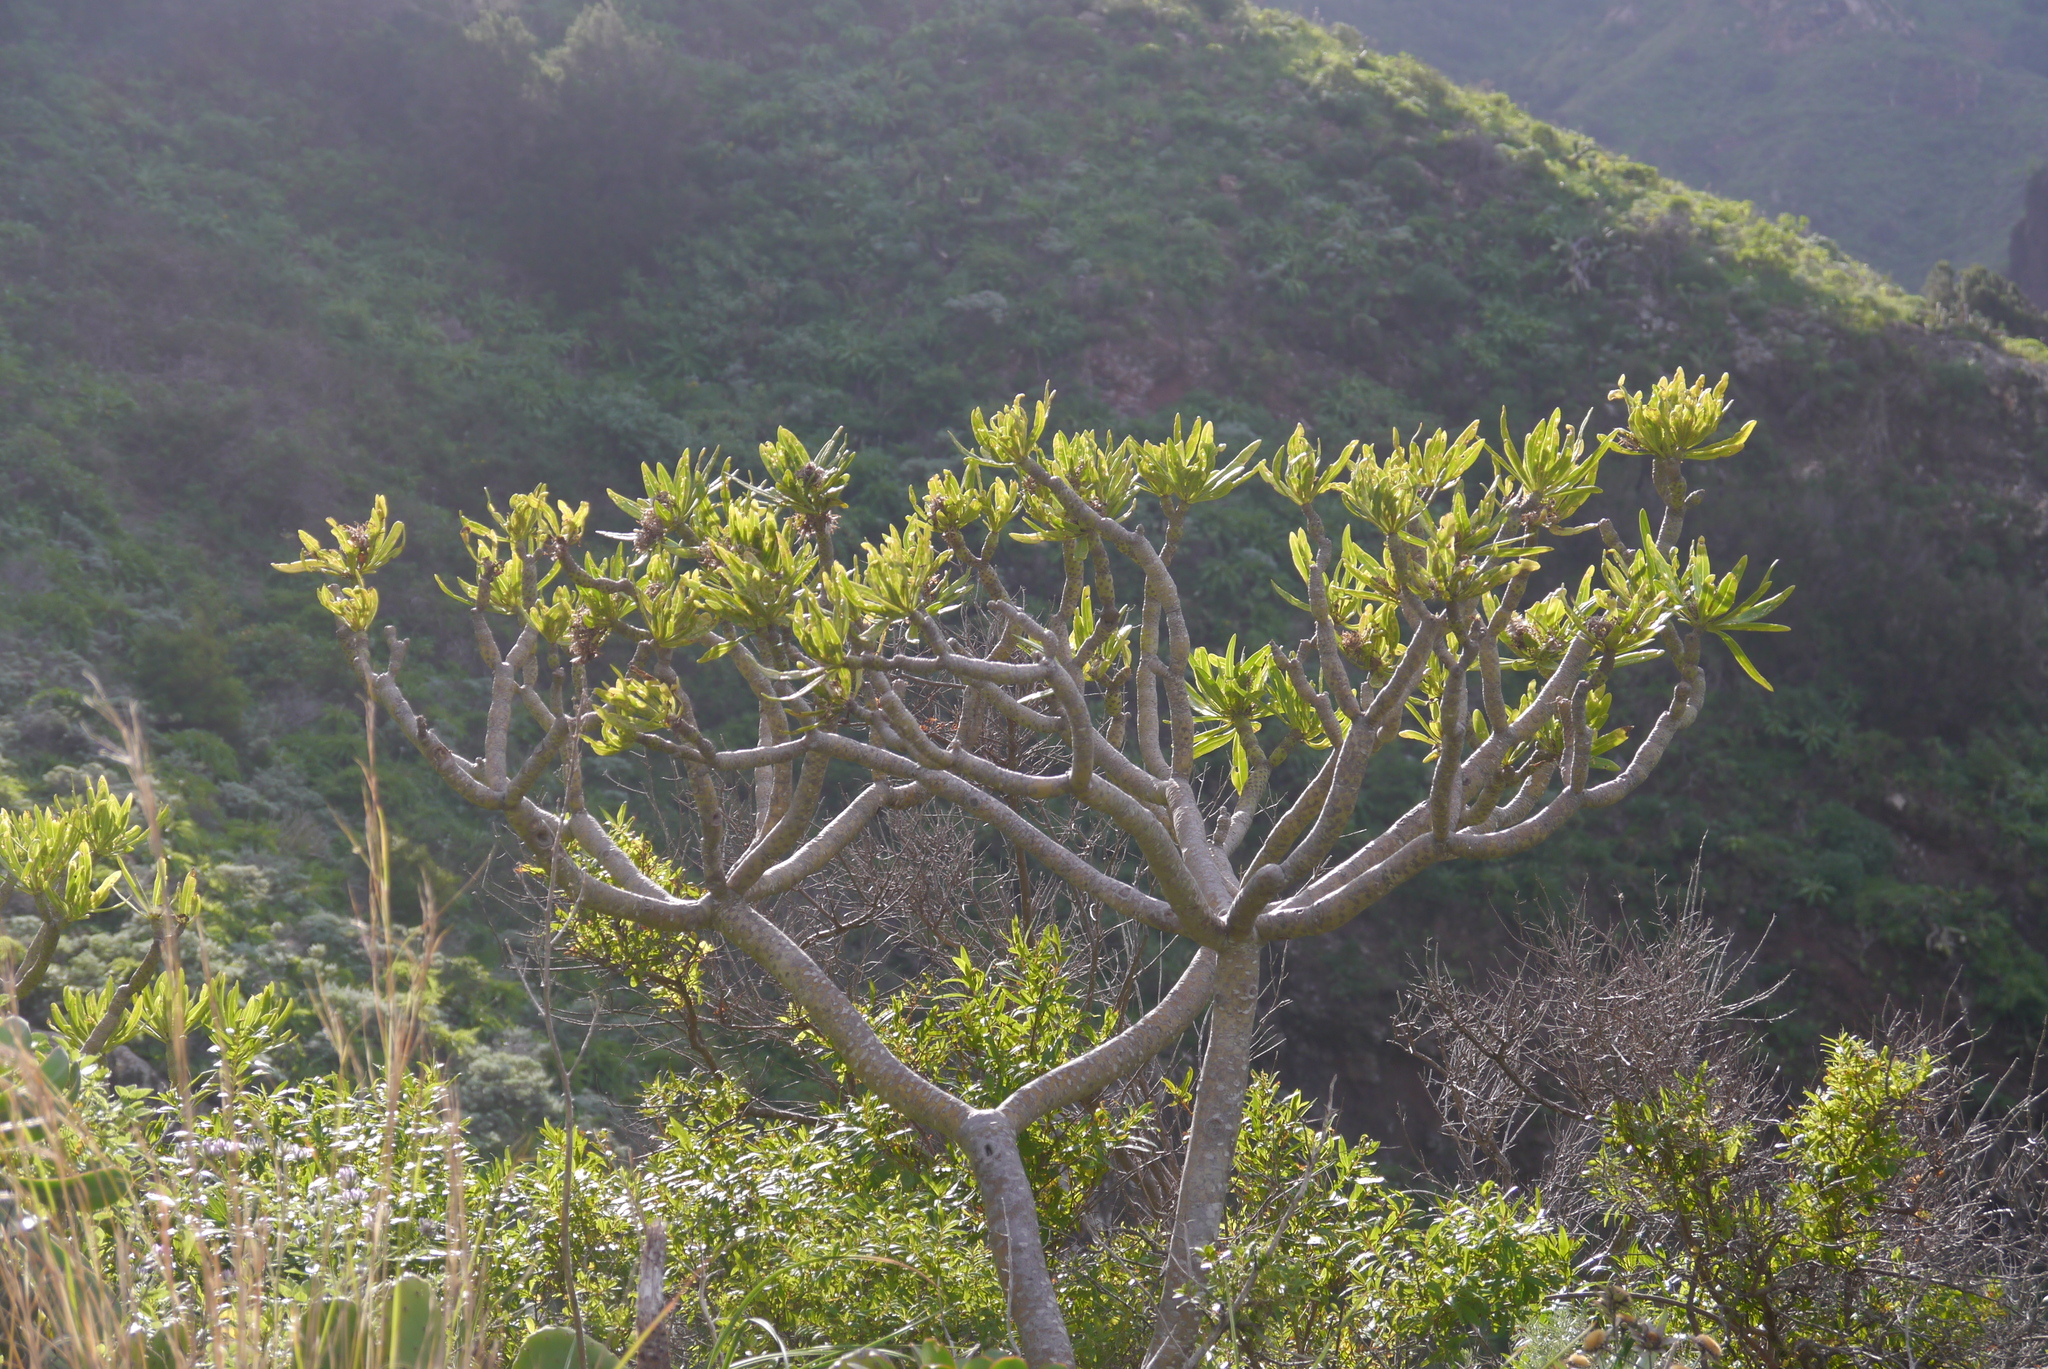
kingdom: Plantae
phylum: Tracheophyta
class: Magnoliopsida
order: Asterales
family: Asteraceae
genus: Kleinia
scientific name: Kleinia neriifolia
